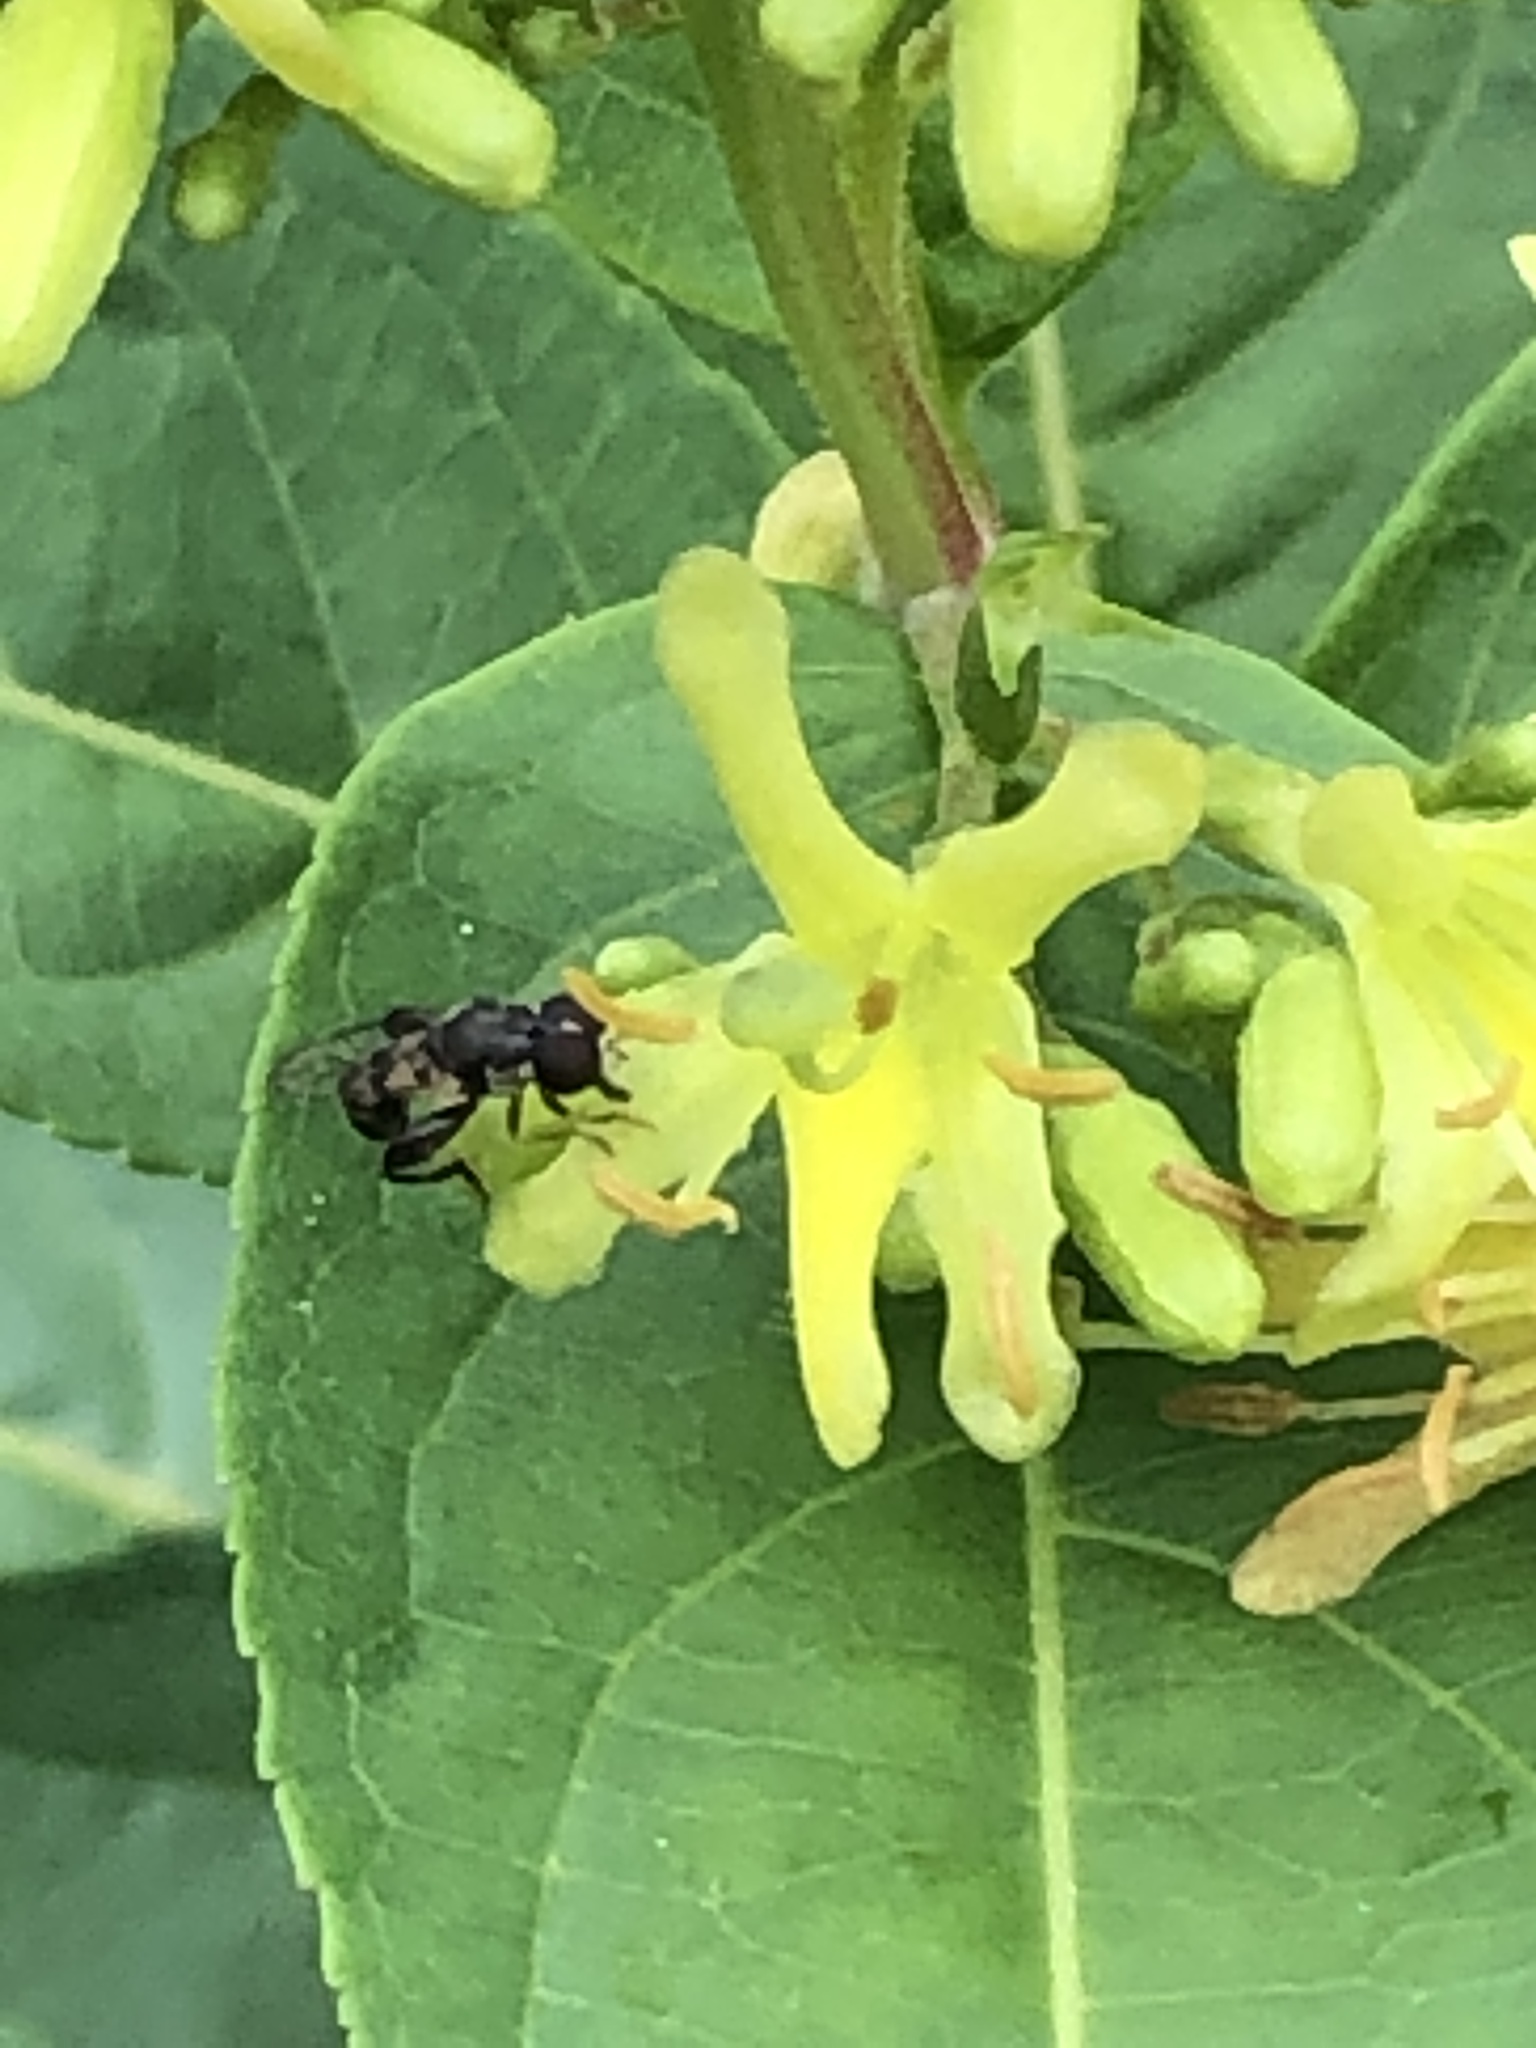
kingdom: Animalia
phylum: Arthropoda
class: Insecta
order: Diptera
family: Syrphidae
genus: Syritta
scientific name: Syritta pipiens
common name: Hover fly
